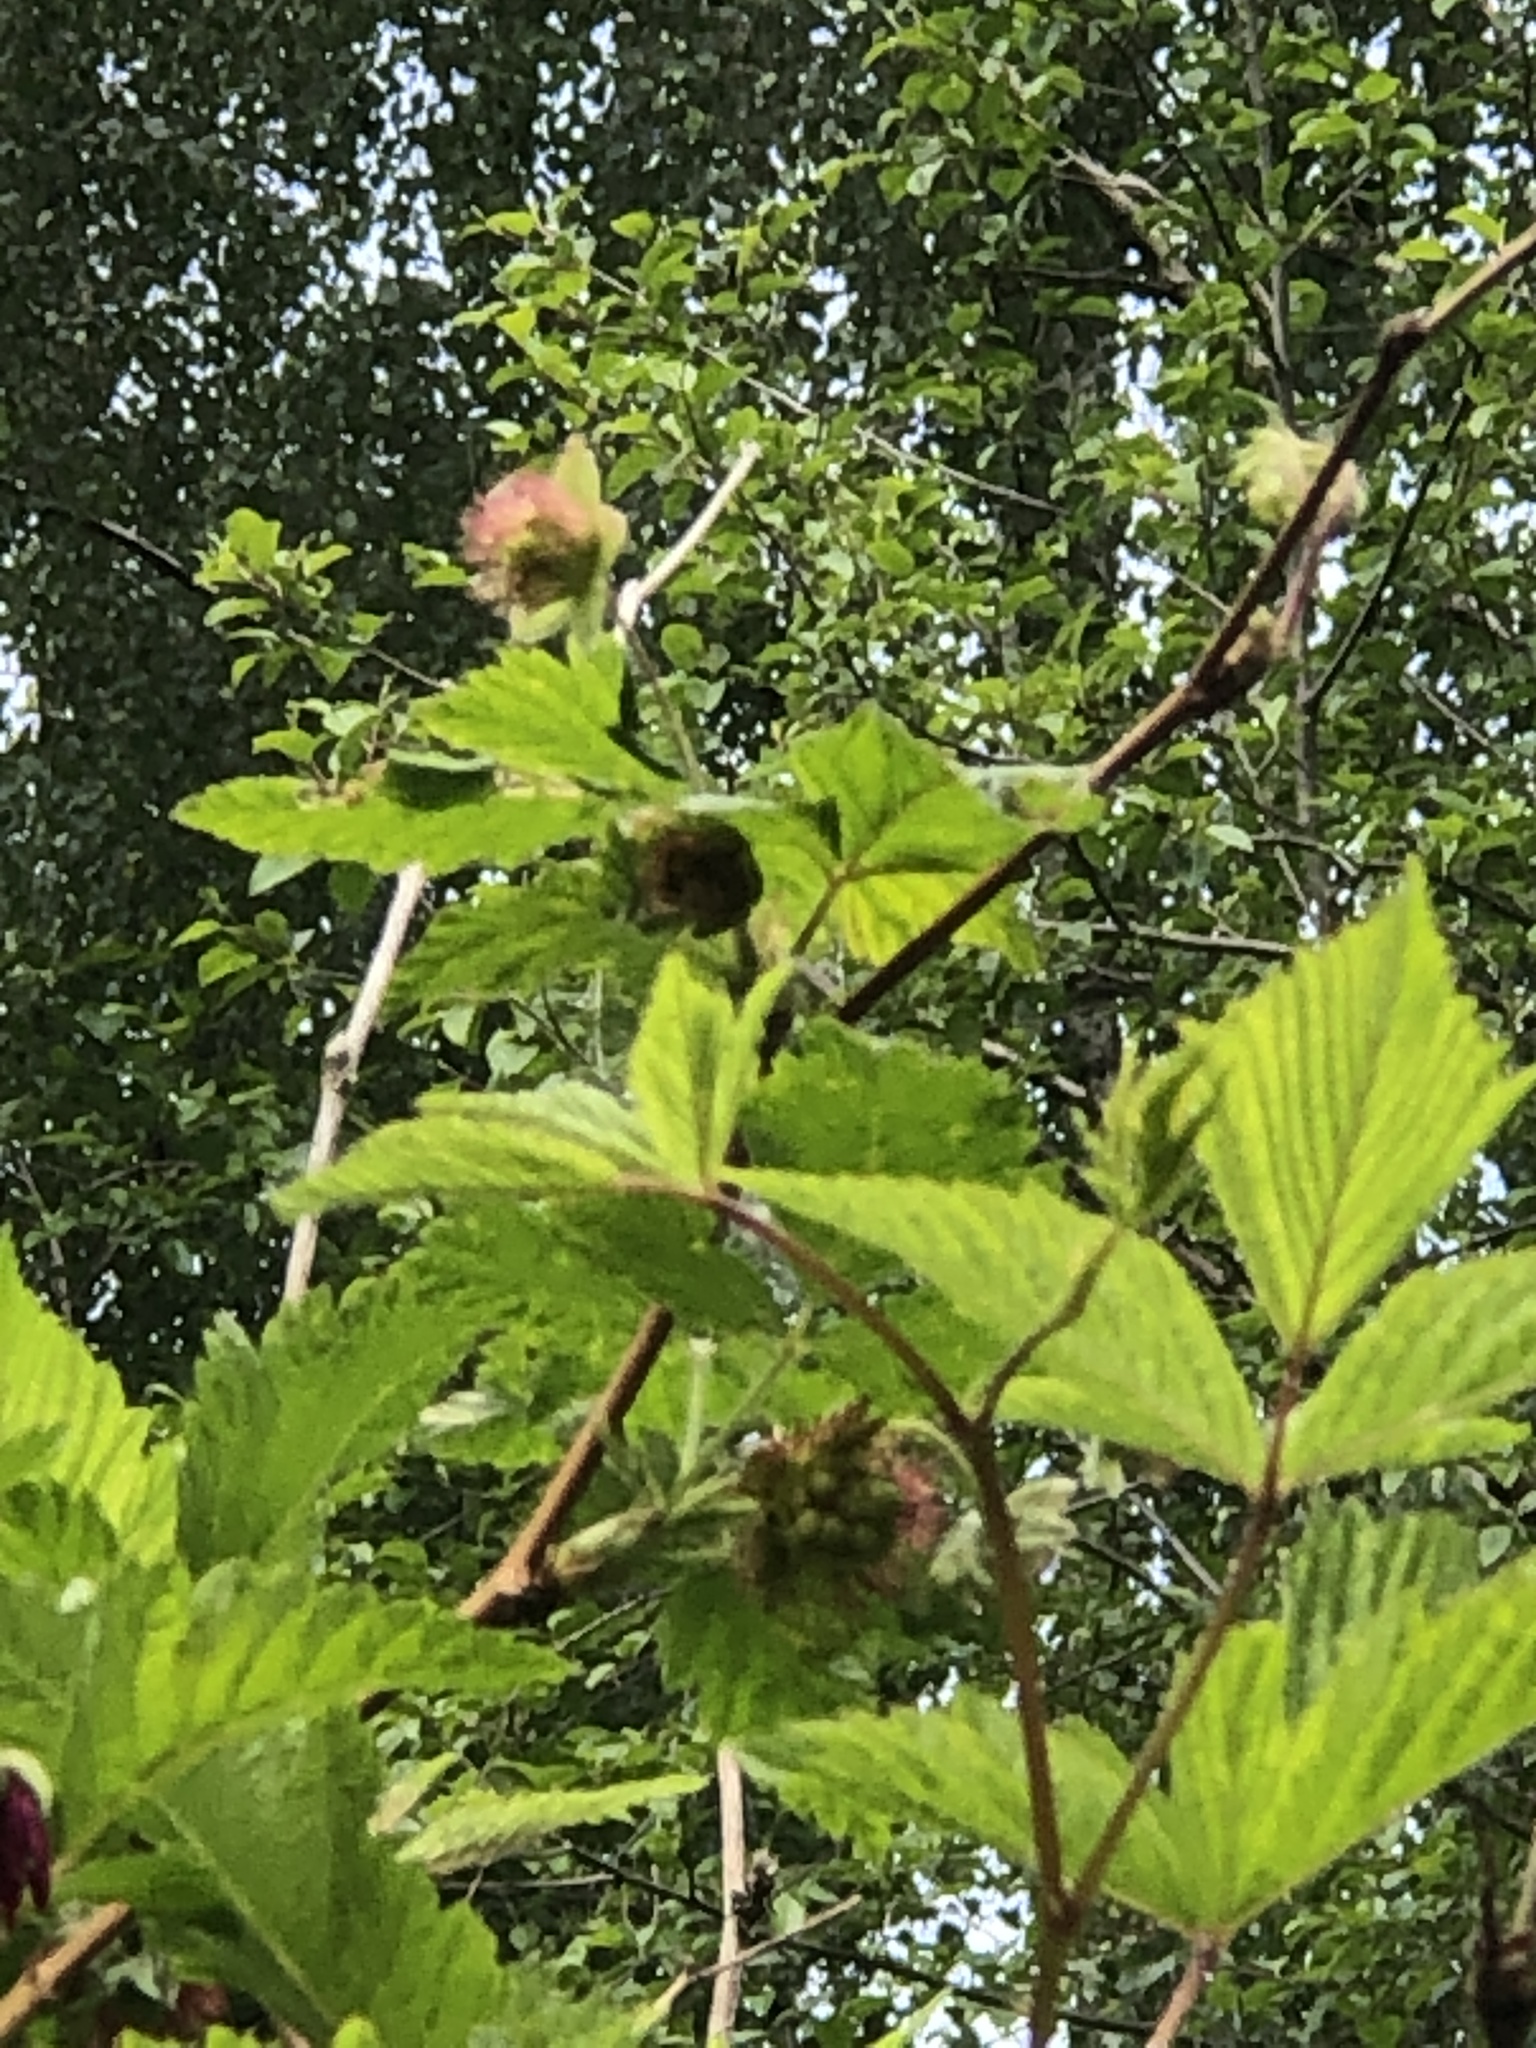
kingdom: Plantae
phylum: Tracheophyta
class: Magnoliopsida
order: Rosales
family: Rosaceae
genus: Rubus
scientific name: Rubus spectabilis
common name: Salmonberry
